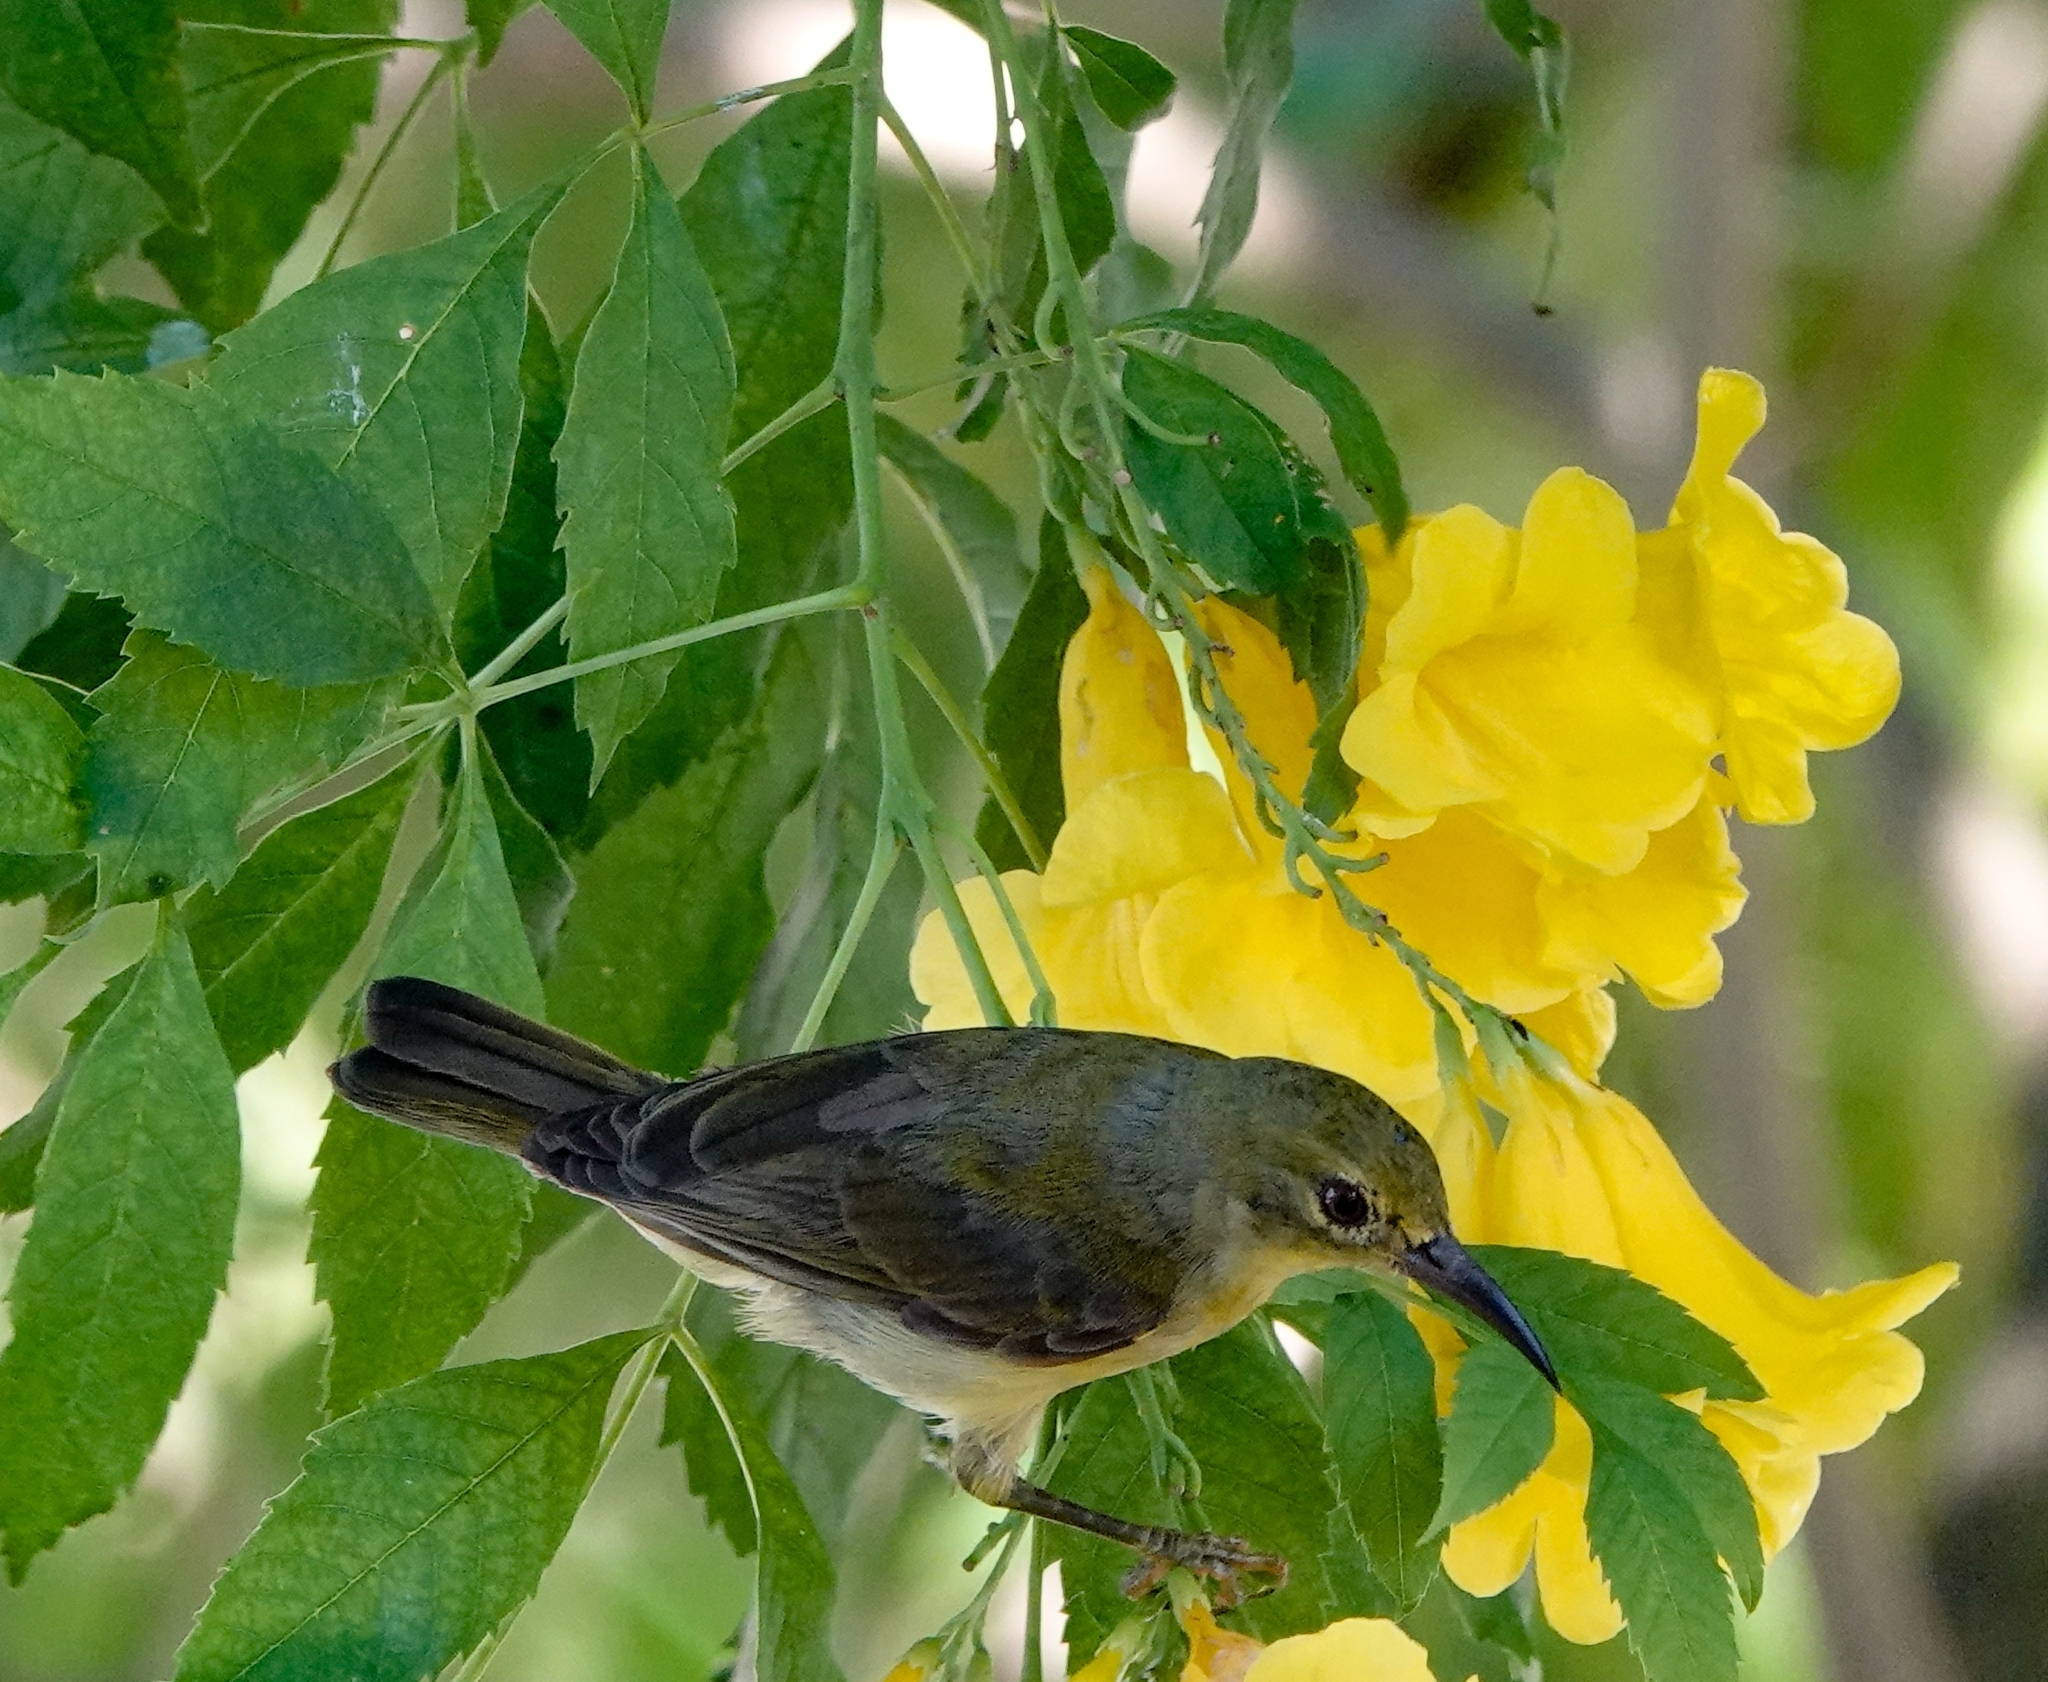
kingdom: Animalia
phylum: Chordata
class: Aves
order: Passeriformes
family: Nectariniidae
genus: Anthreptes
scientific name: Anthreptes malacensis
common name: Brown-throated sunbird
